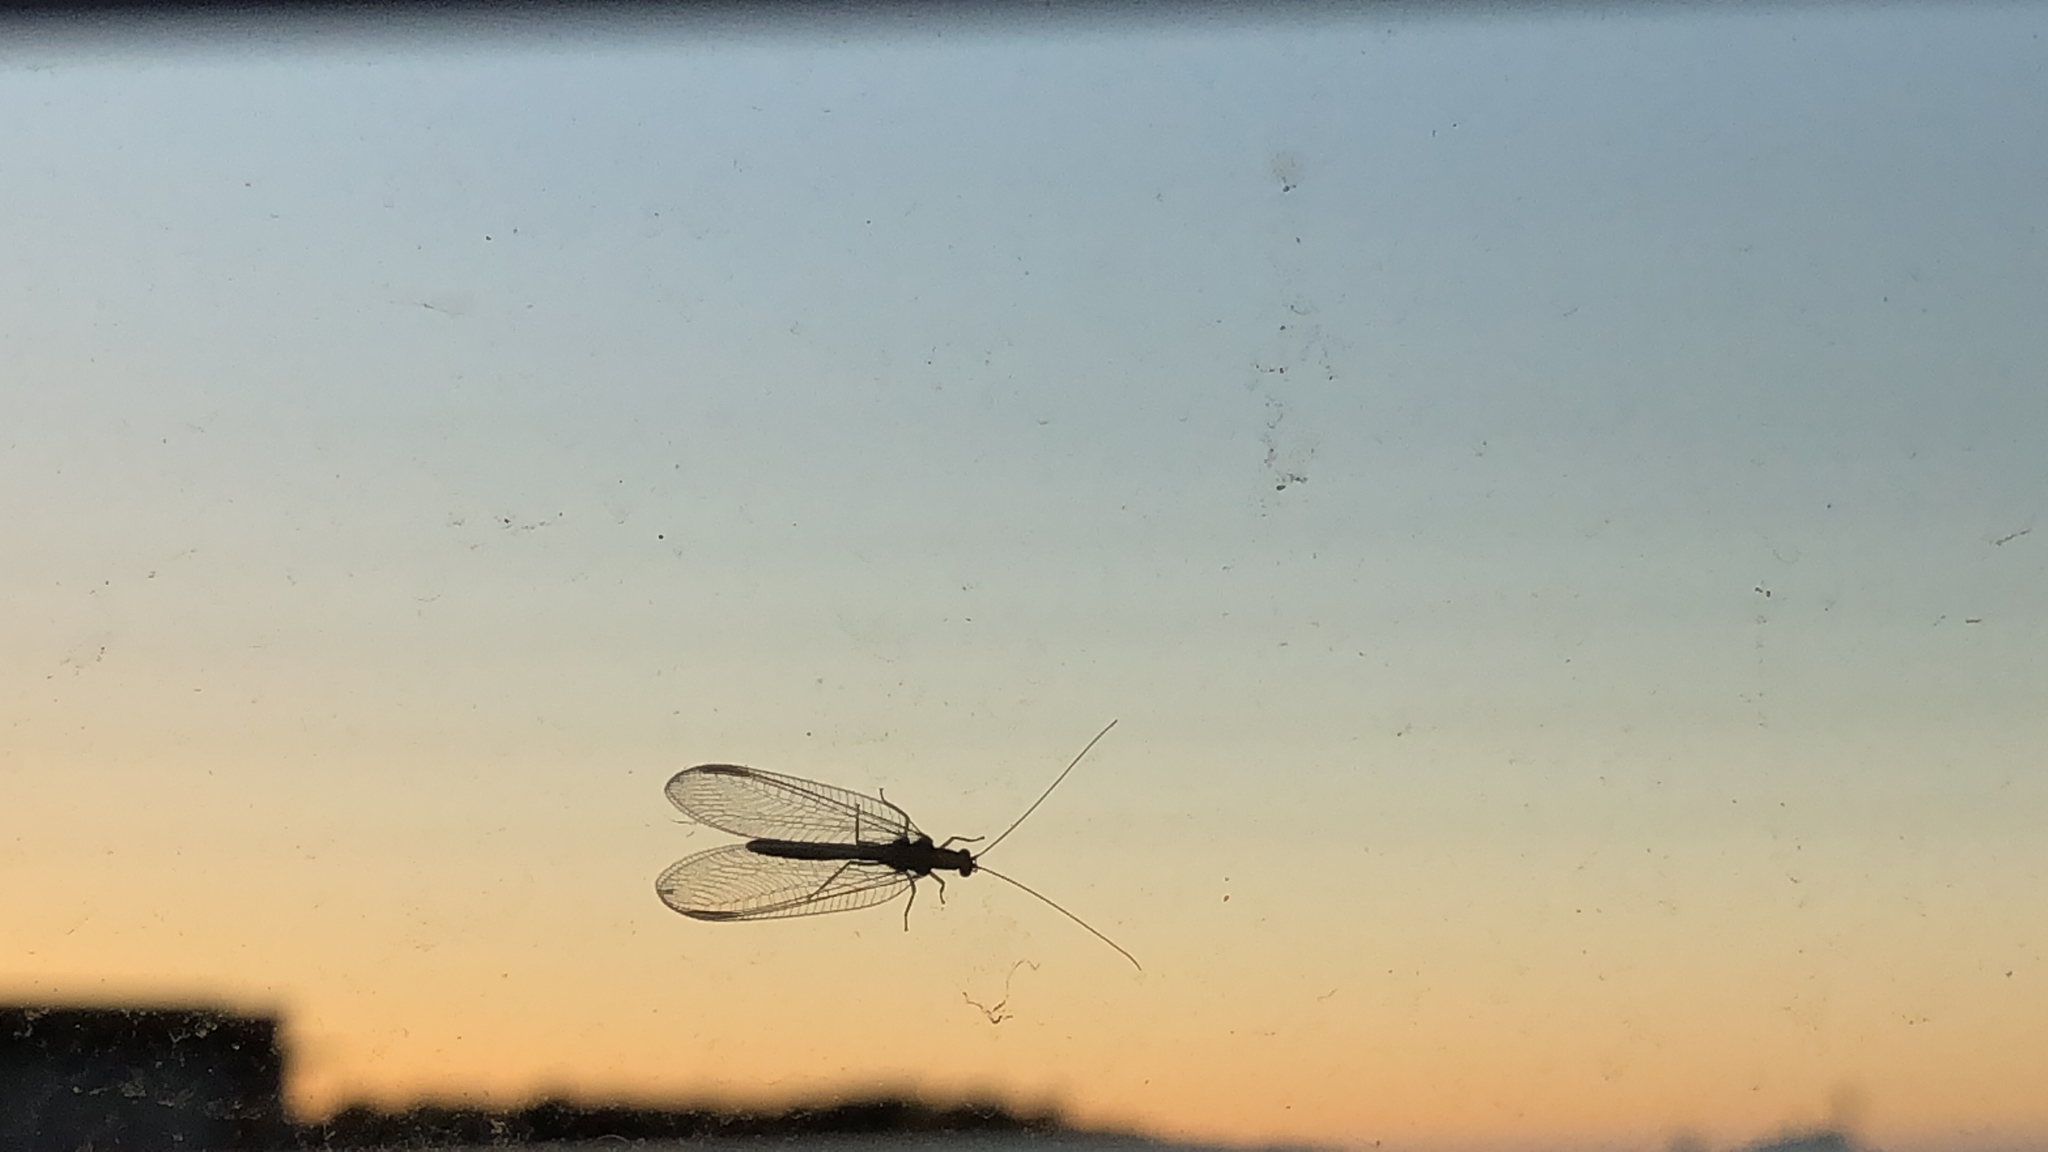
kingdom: Animalia
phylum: Arthropoda
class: Insecta
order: Neuroptera
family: Chrysopidae
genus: Chrysoperla
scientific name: Chrysoperla
